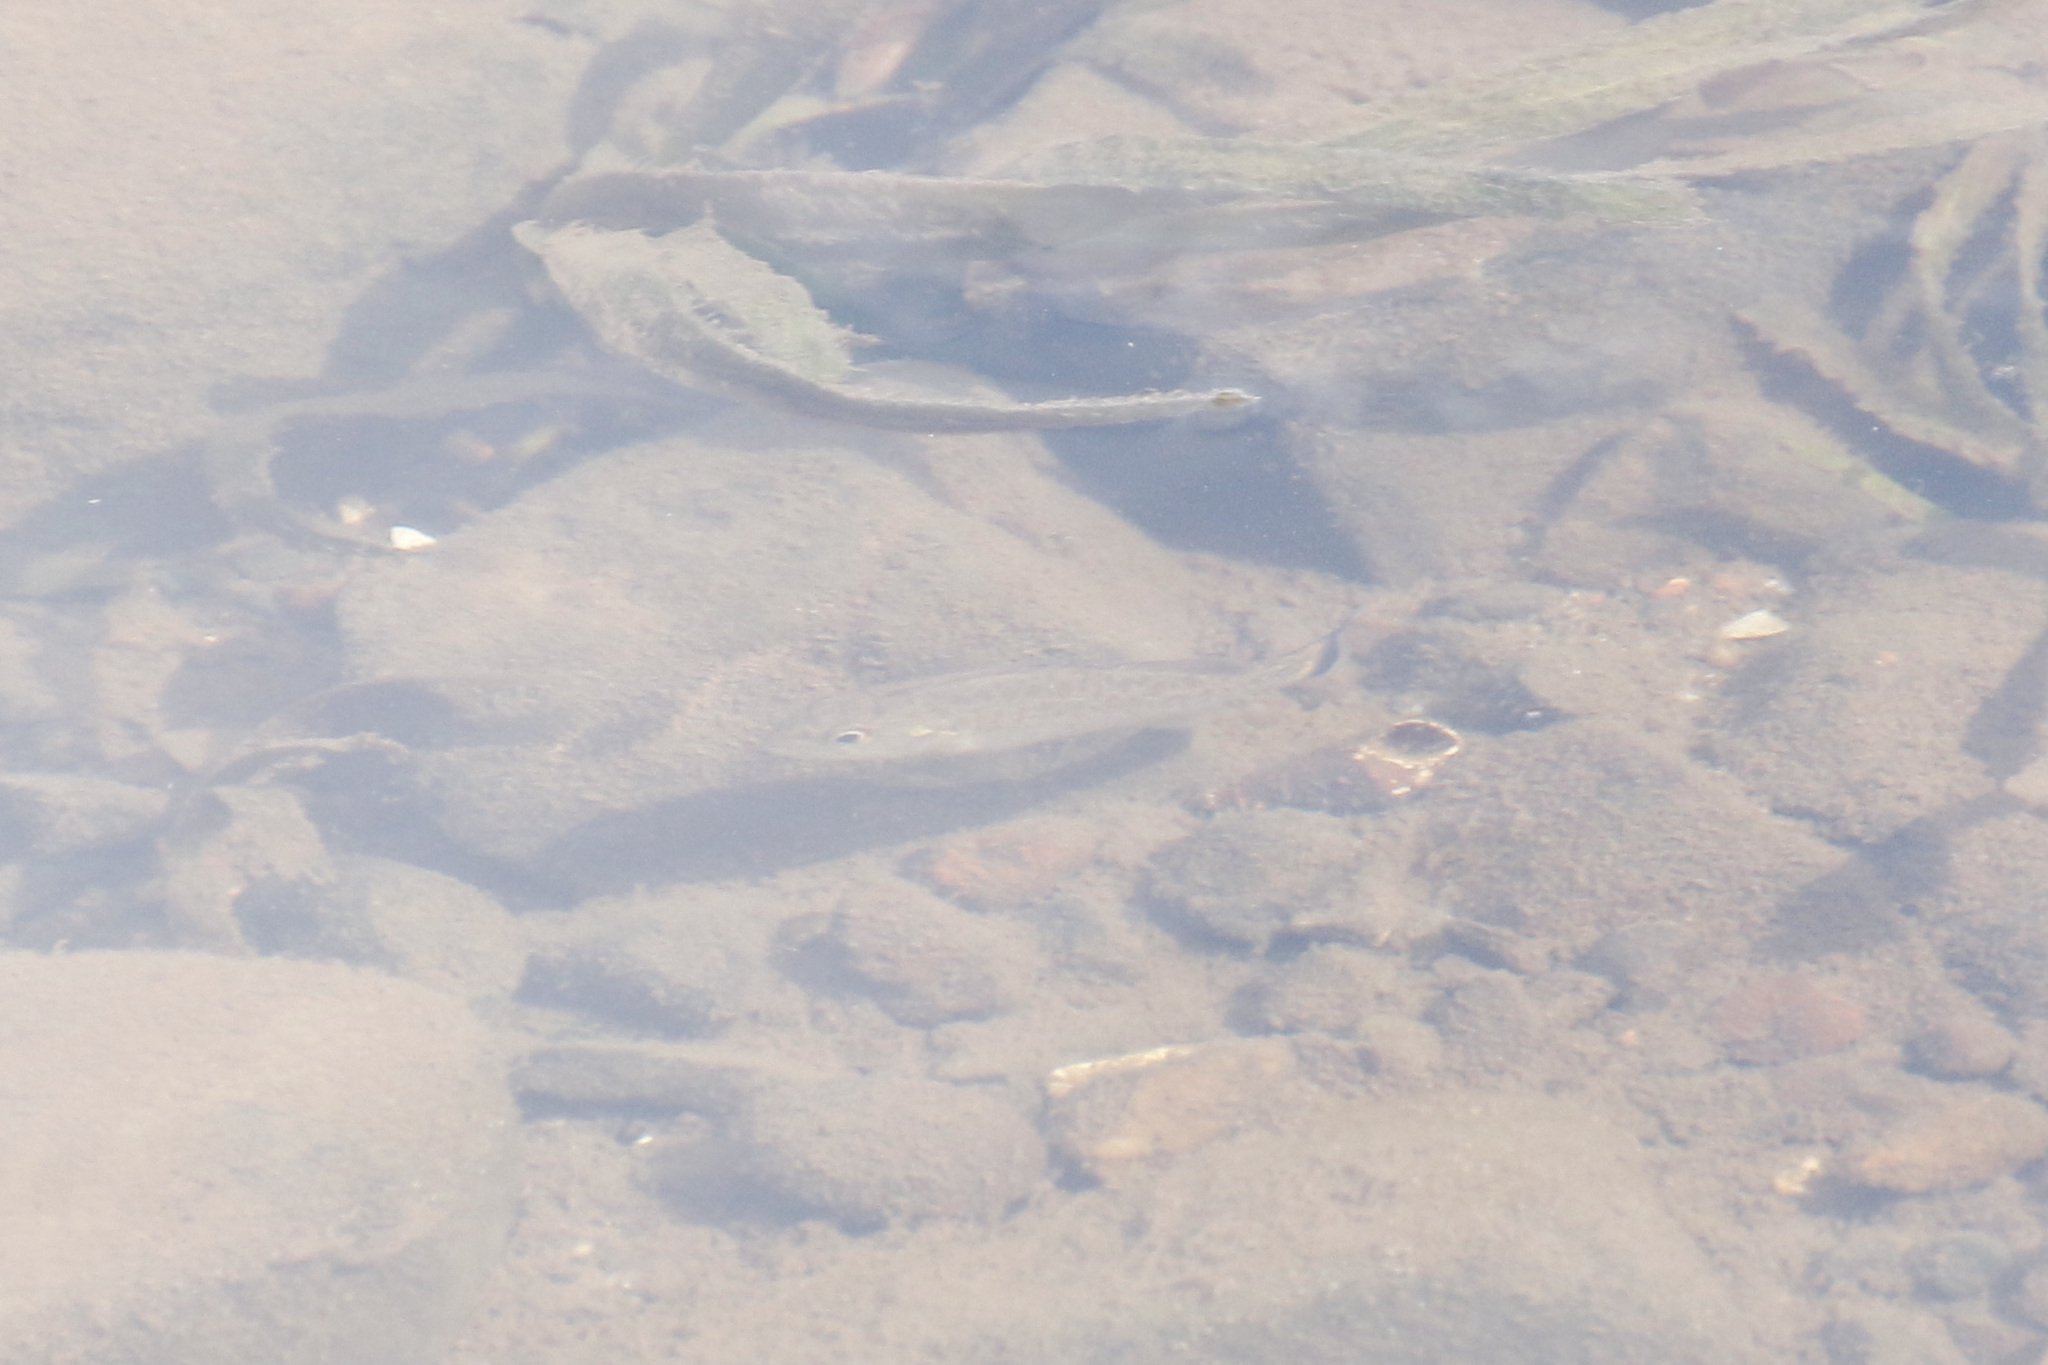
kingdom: Animalia
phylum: Chordata
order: Perciformes
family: Centrarchidae
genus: Micropterus
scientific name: Micropterus dolomieu
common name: Smallmouth bass
